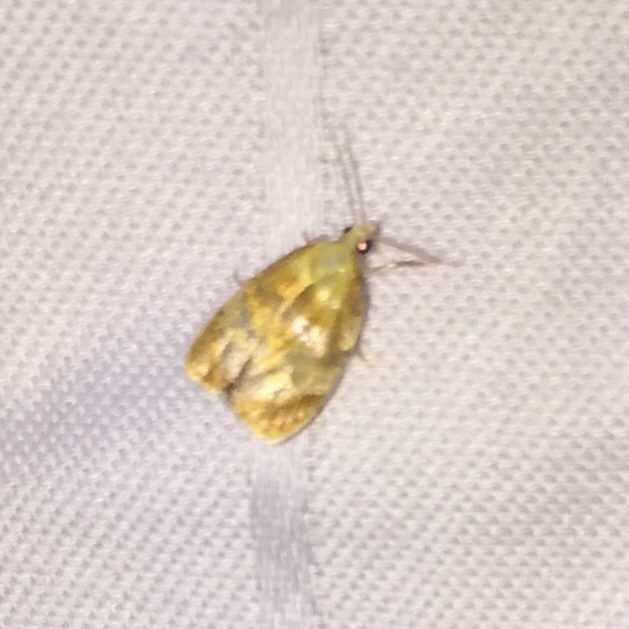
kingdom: Animalia
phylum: Arthropoda
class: Insecta
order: Lepidoptera
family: Tortricidae
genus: Acleris
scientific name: Acleris curvalana
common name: Blueberry leaftier moth
